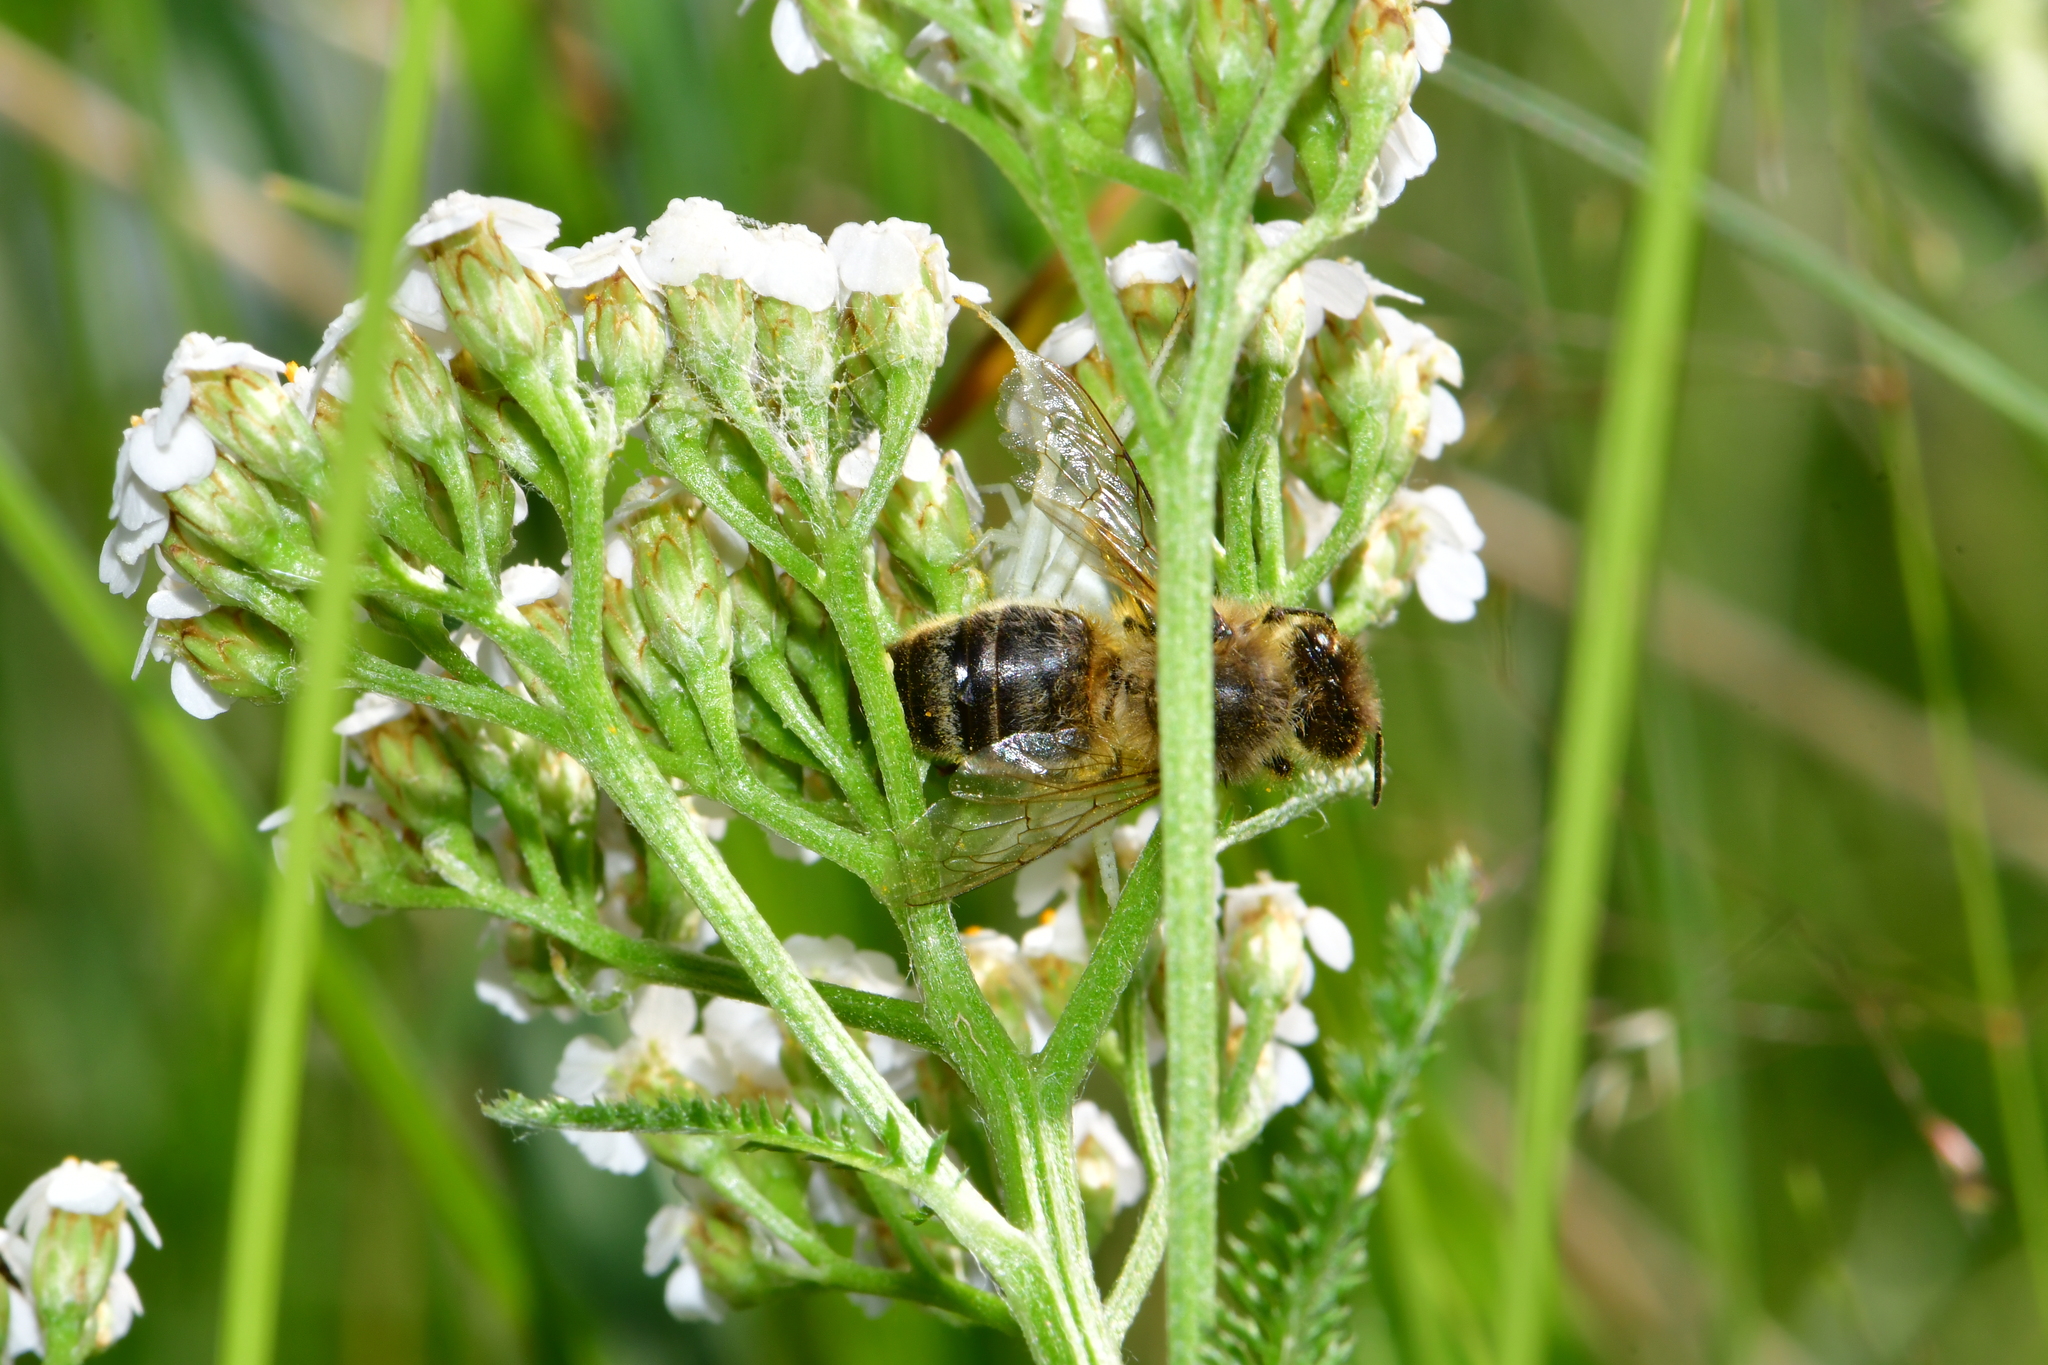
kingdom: Animalia
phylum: Arthropoda
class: Insecta
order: Hymenoptera
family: Apidae
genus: Apis
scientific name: Apis mellifera
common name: Honey bee
